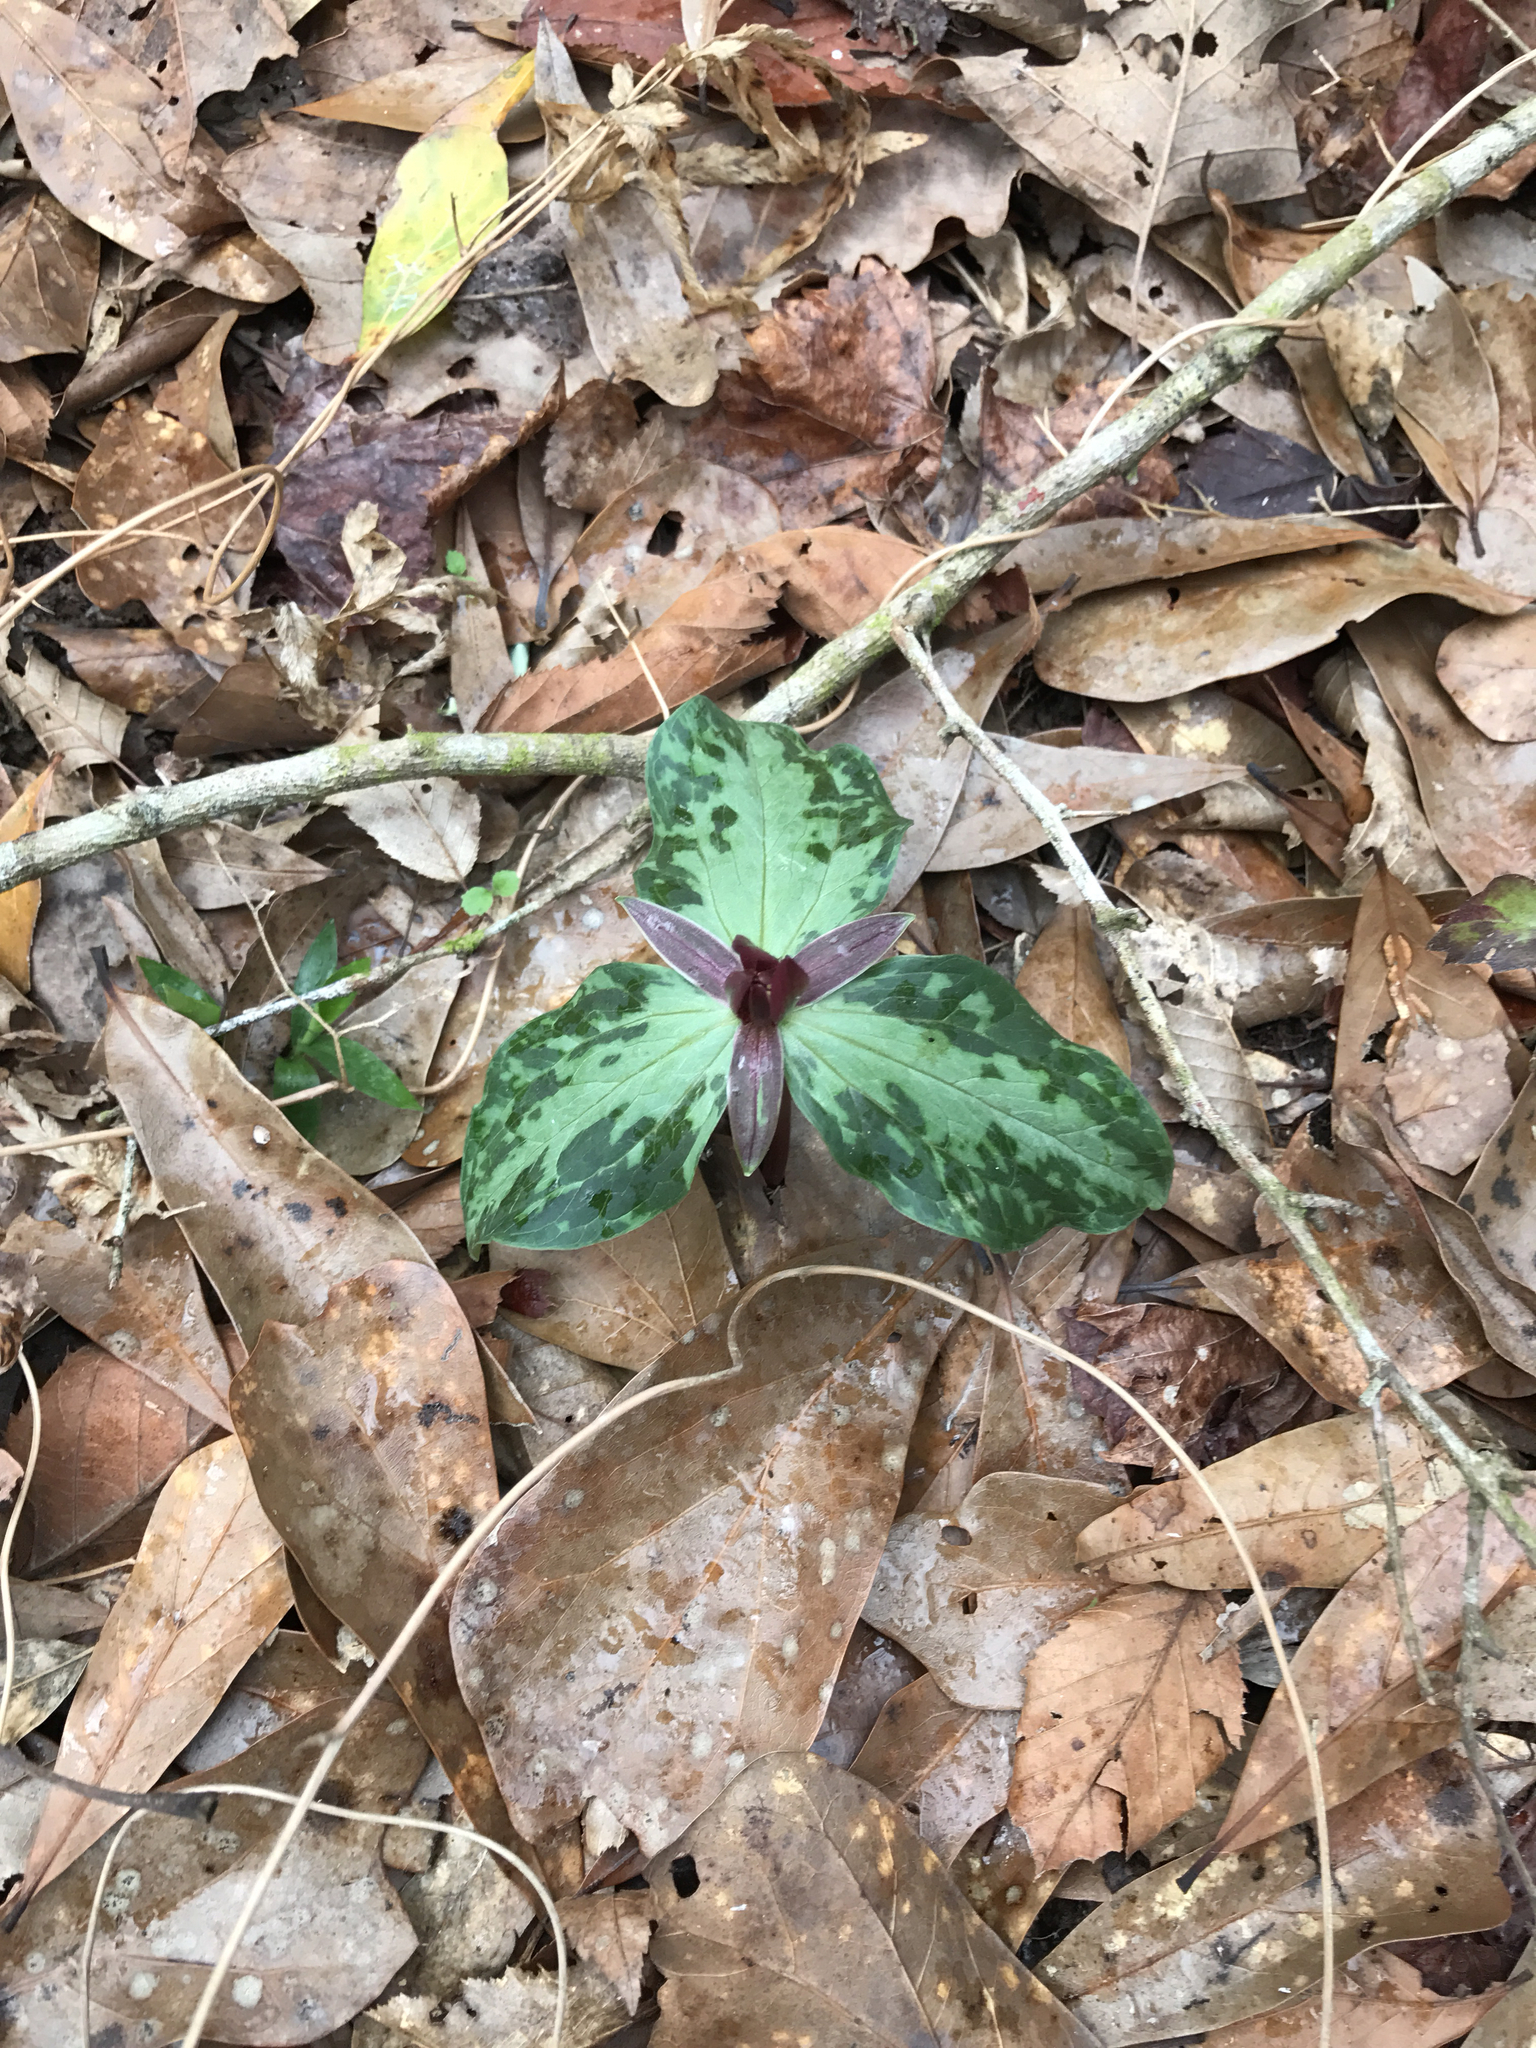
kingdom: Plantae
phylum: Tracheophyta
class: Liliopsida
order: Liliales
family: Melanthiaceae
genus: Trillium
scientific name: Trillium foetidissimum
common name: Mississippi river trillium
